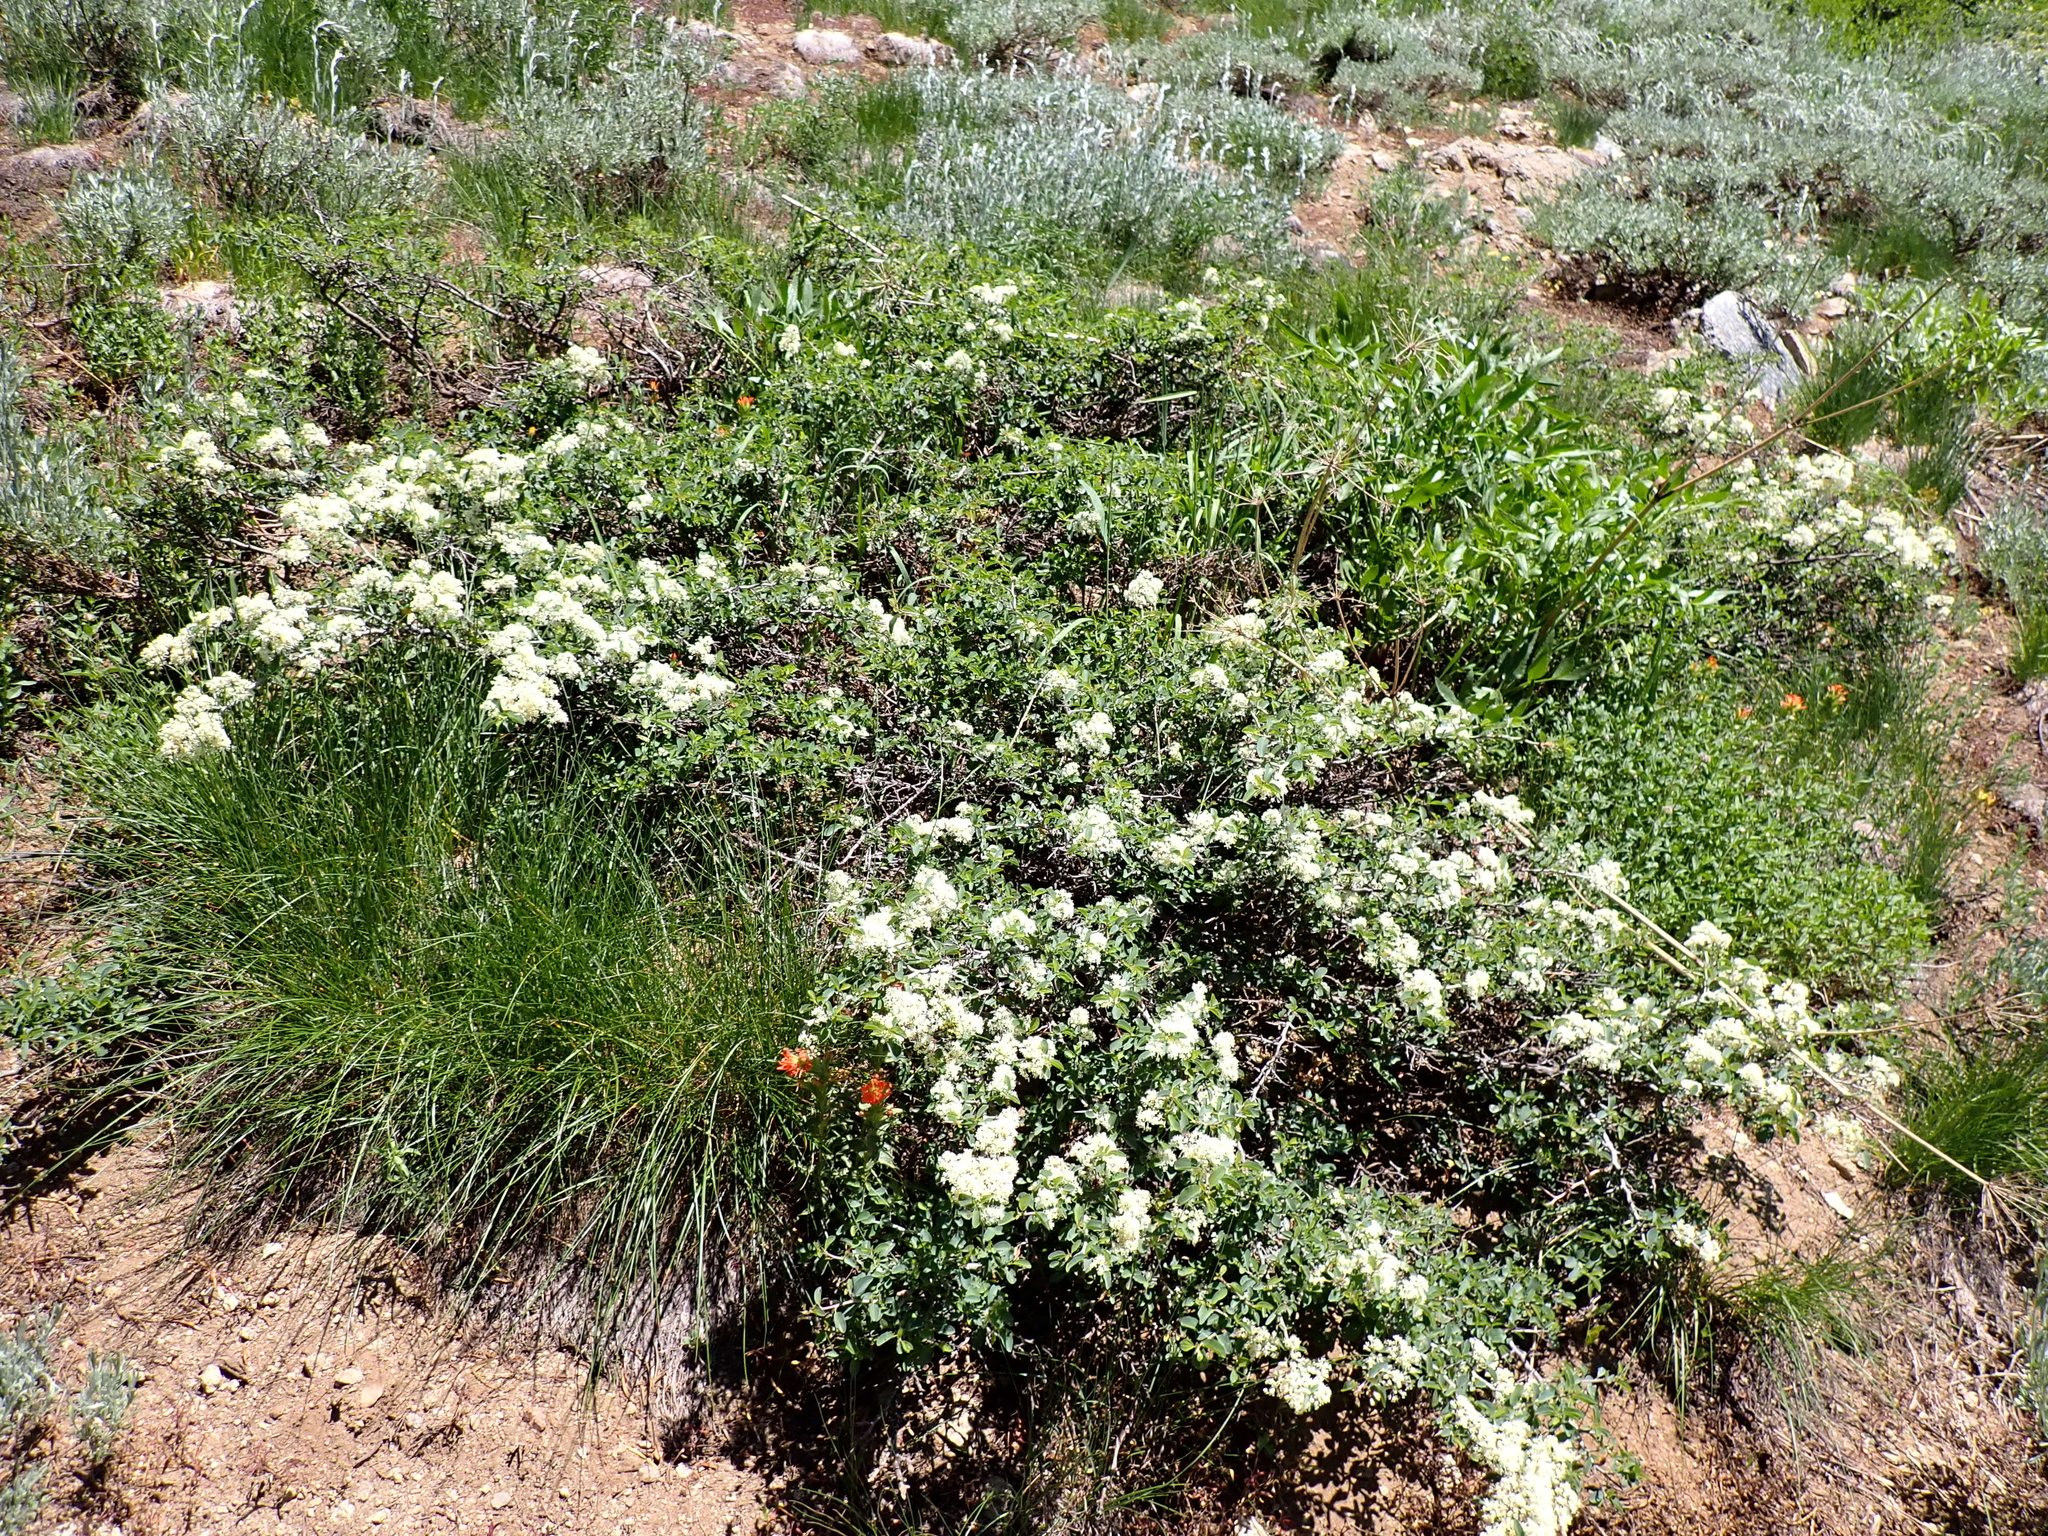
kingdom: Plantae
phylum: Tracheophyta
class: Magnoliopsida
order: Rosales
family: Rhamnaceae
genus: Ceanothus
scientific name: Ceanothus cordulatus
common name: Mountain whitethorn
